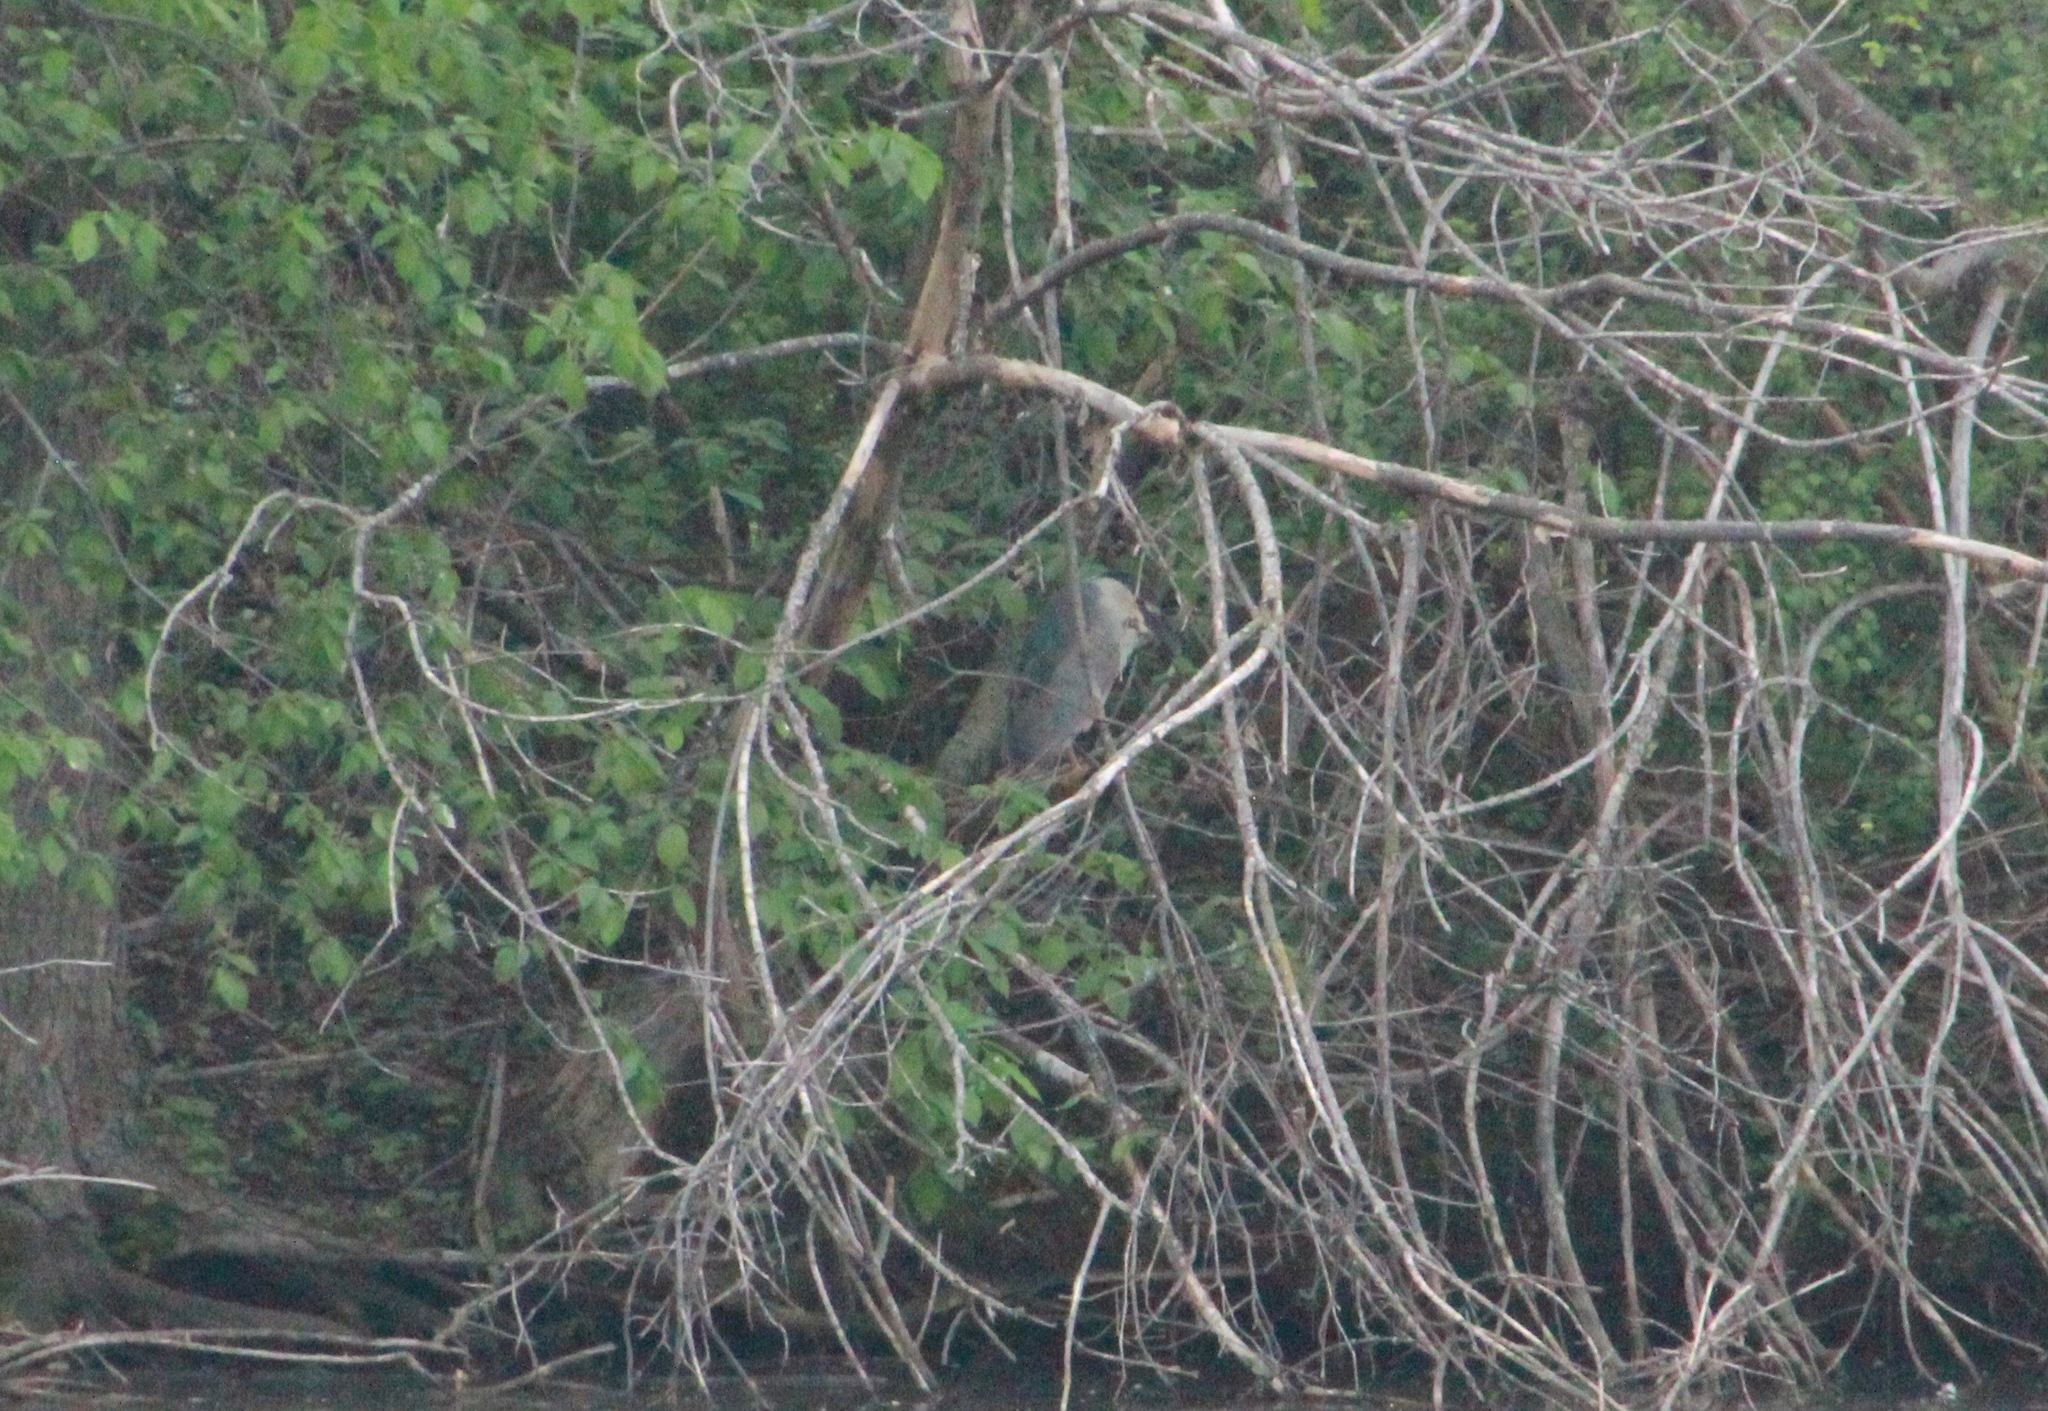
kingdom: Animalia
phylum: Chordata
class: Aves
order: Pelecaniformes
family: Ardeidae
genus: Nycticorax
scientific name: Nycticorax nycticorax
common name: Black-crowned night heron
